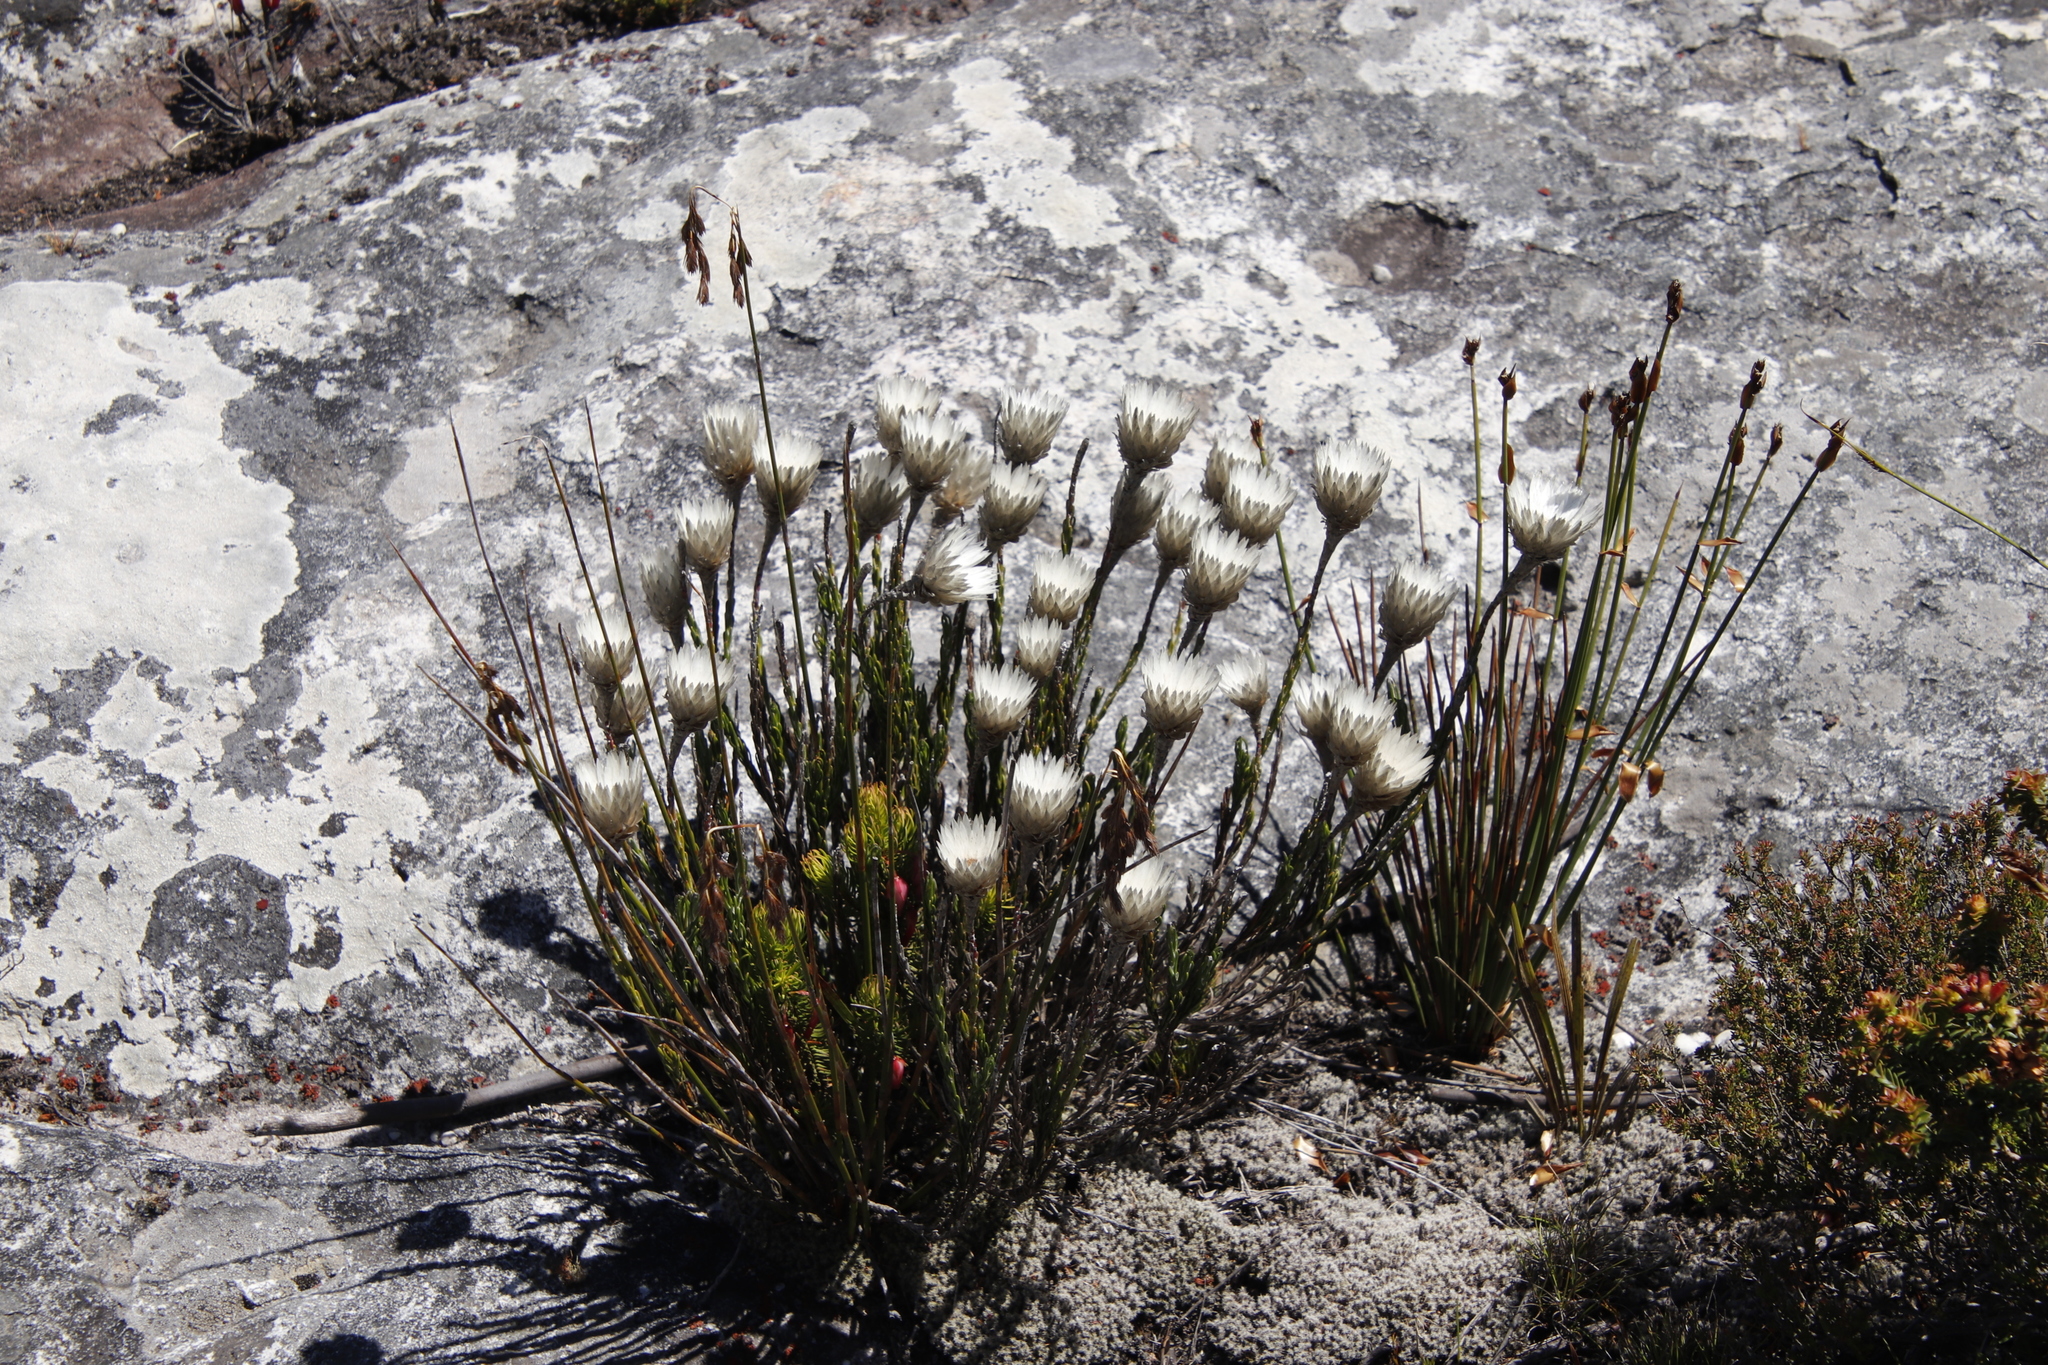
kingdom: Plantae
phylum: Tracheophyta
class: Magnoliopsida
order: Asterales
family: Asteraceae
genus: Edmondia
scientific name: Edmondia pinifolia
